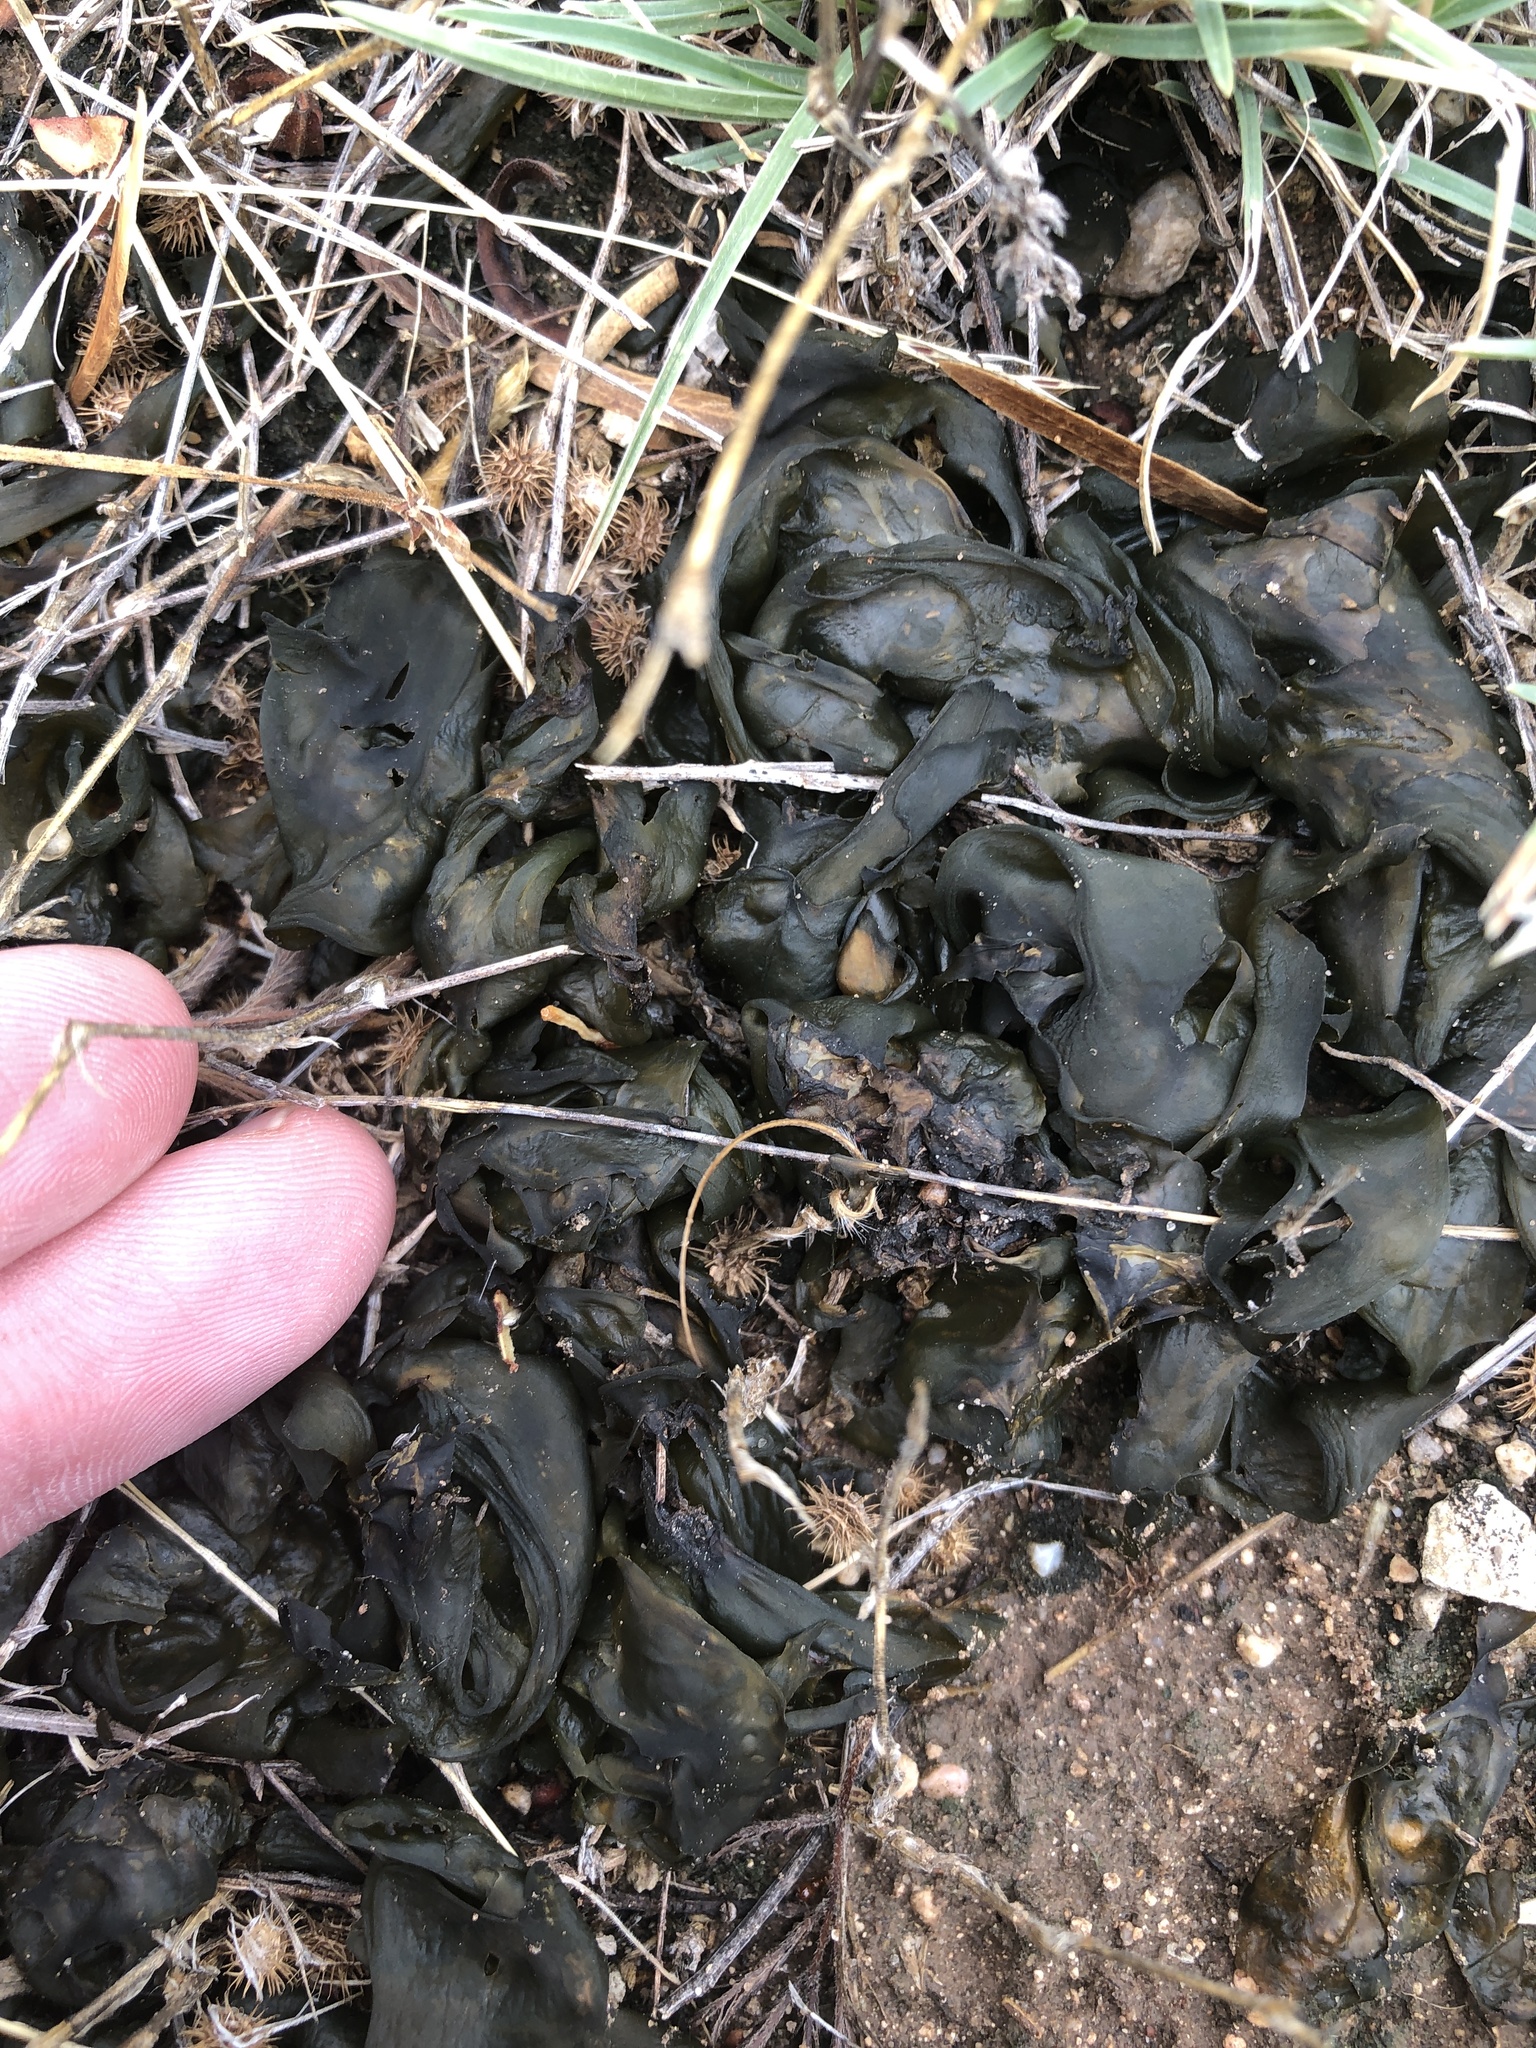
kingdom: Bacteria
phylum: Cyanobacteria
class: Cyanobacteriia
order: Cyanobacteriales
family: Nostocaceae
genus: Nostoc
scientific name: Nostoc commune
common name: Star jelly
